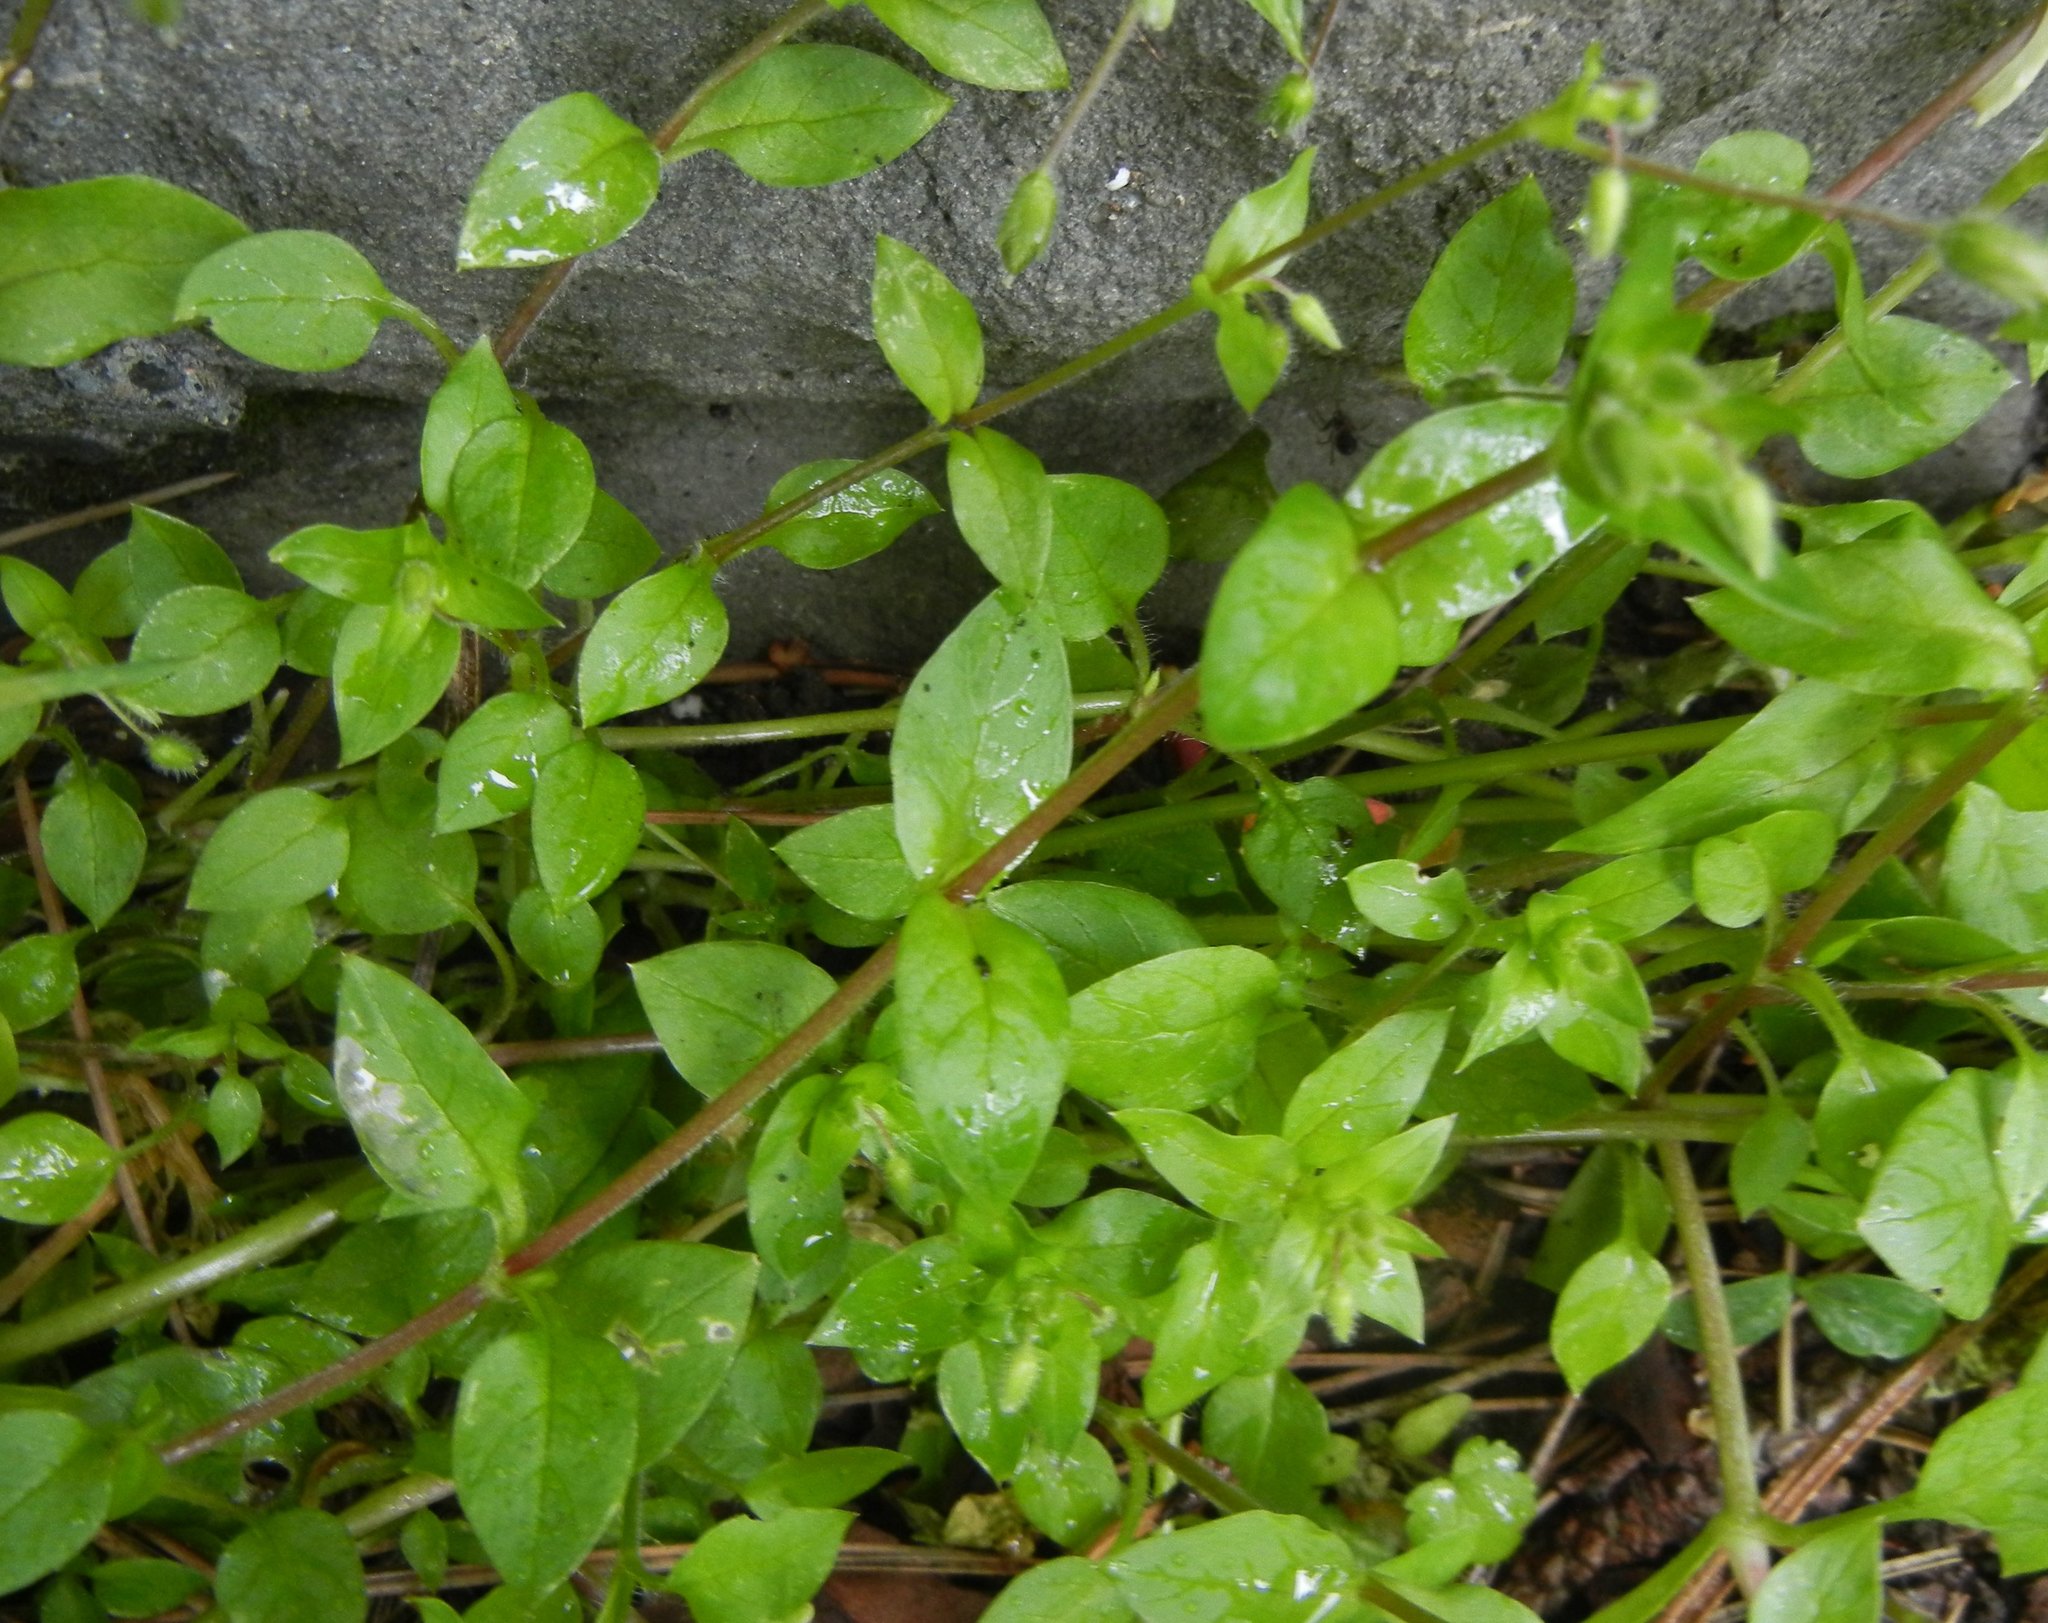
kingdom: Plantae
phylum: Tracheophyta
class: Magnoliopsida
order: Caryophyllales
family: Caryophyllaceae
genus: Stellaria
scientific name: Stellaria media
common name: Common chickweed
